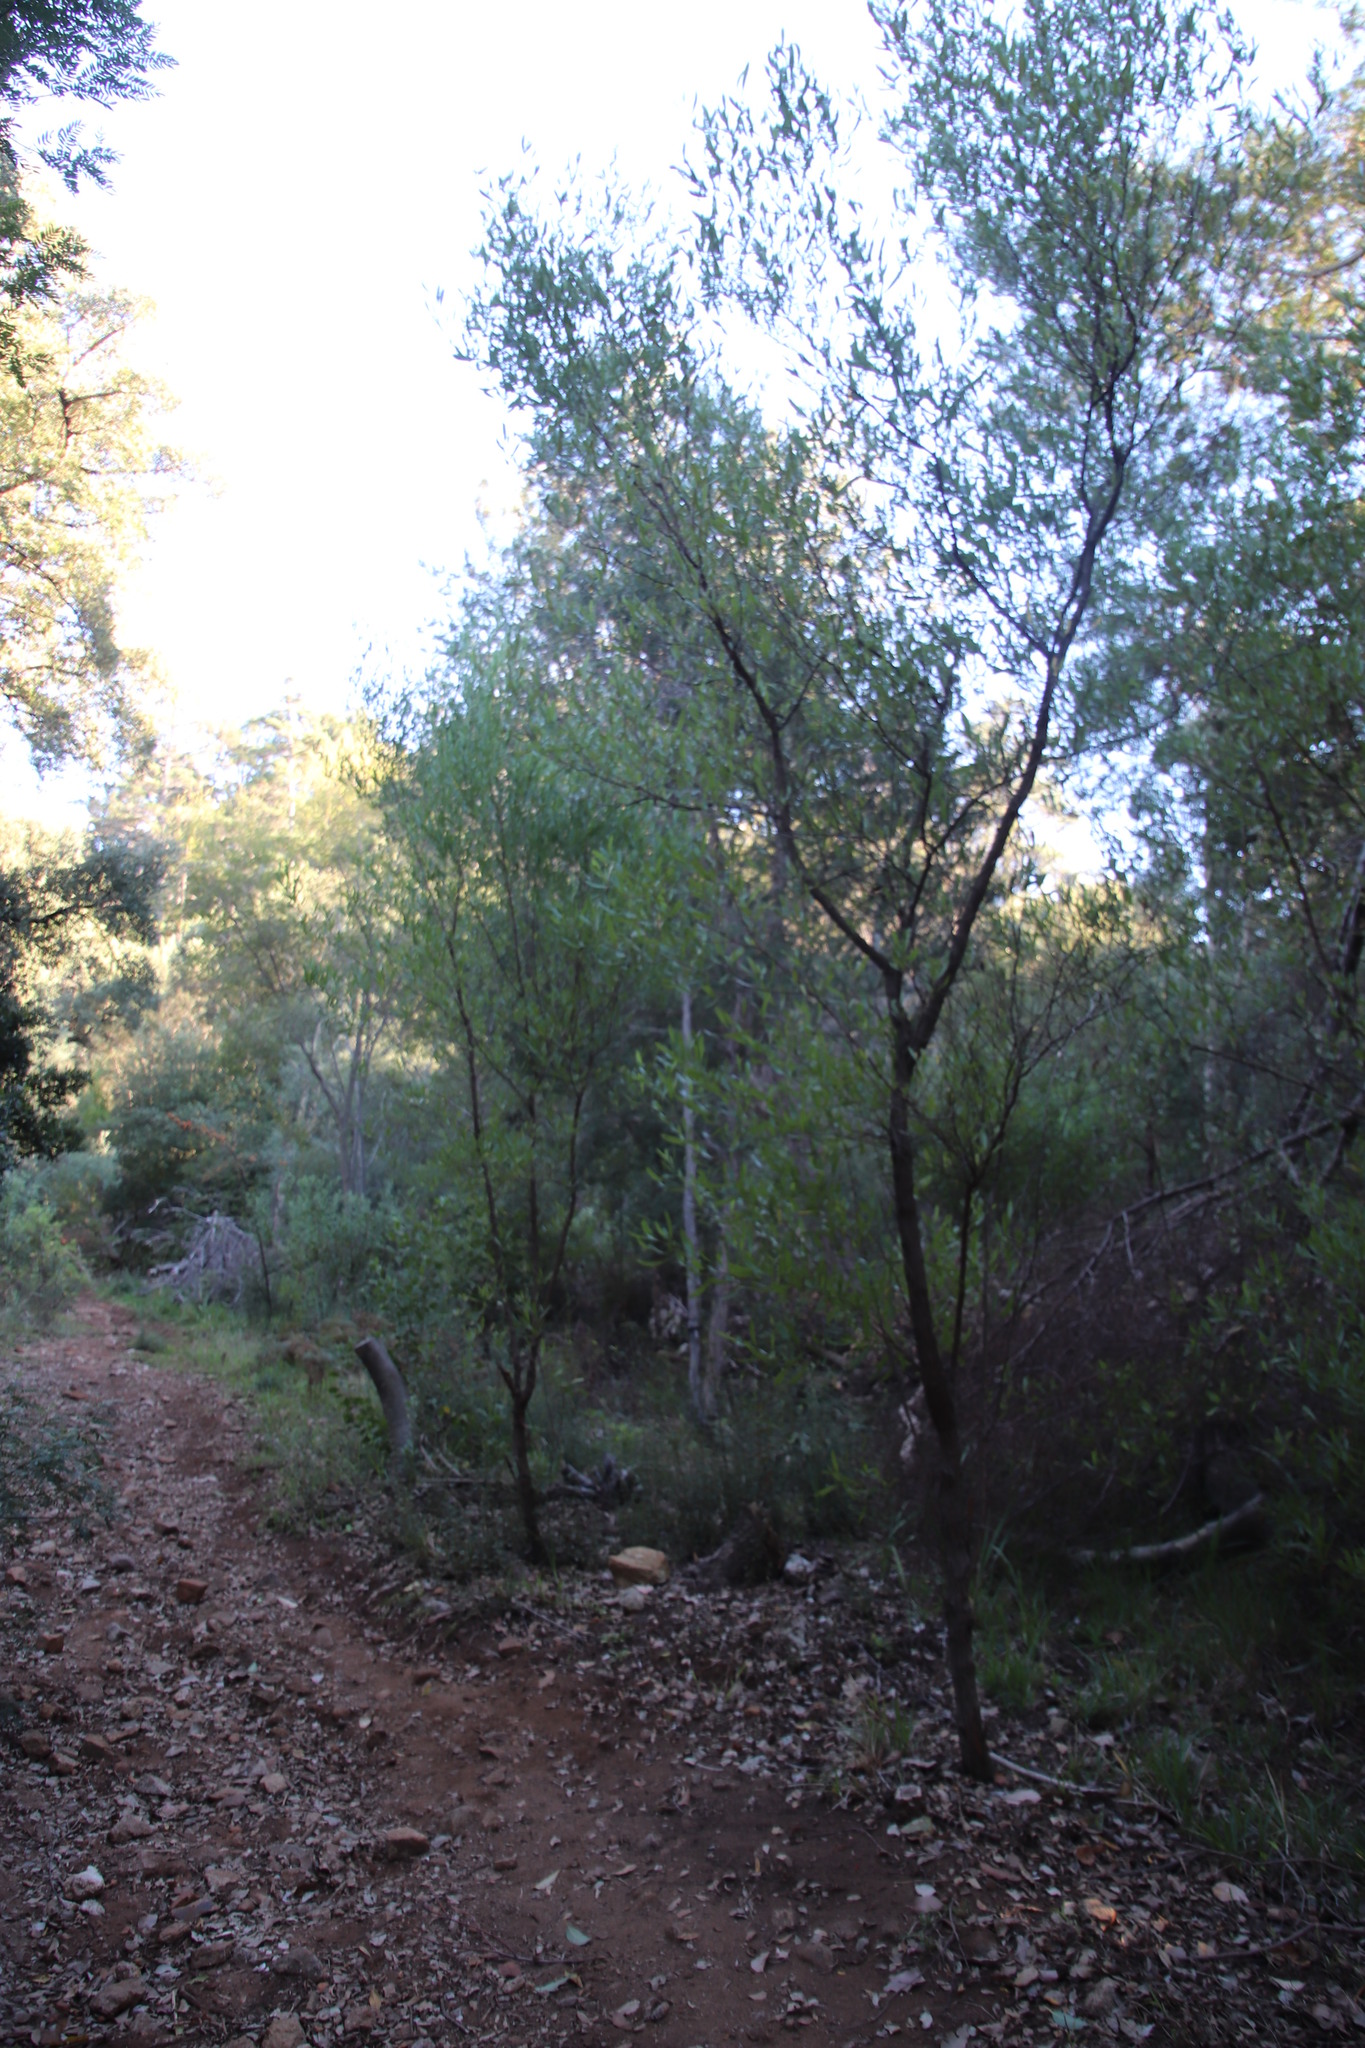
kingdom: Plantae
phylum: Tracheophyta
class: Magnoliopsida
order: Sapindales
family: Sapindaceae
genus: Dodonaea
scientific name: Dodonaea viscosa
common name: Hopbush
